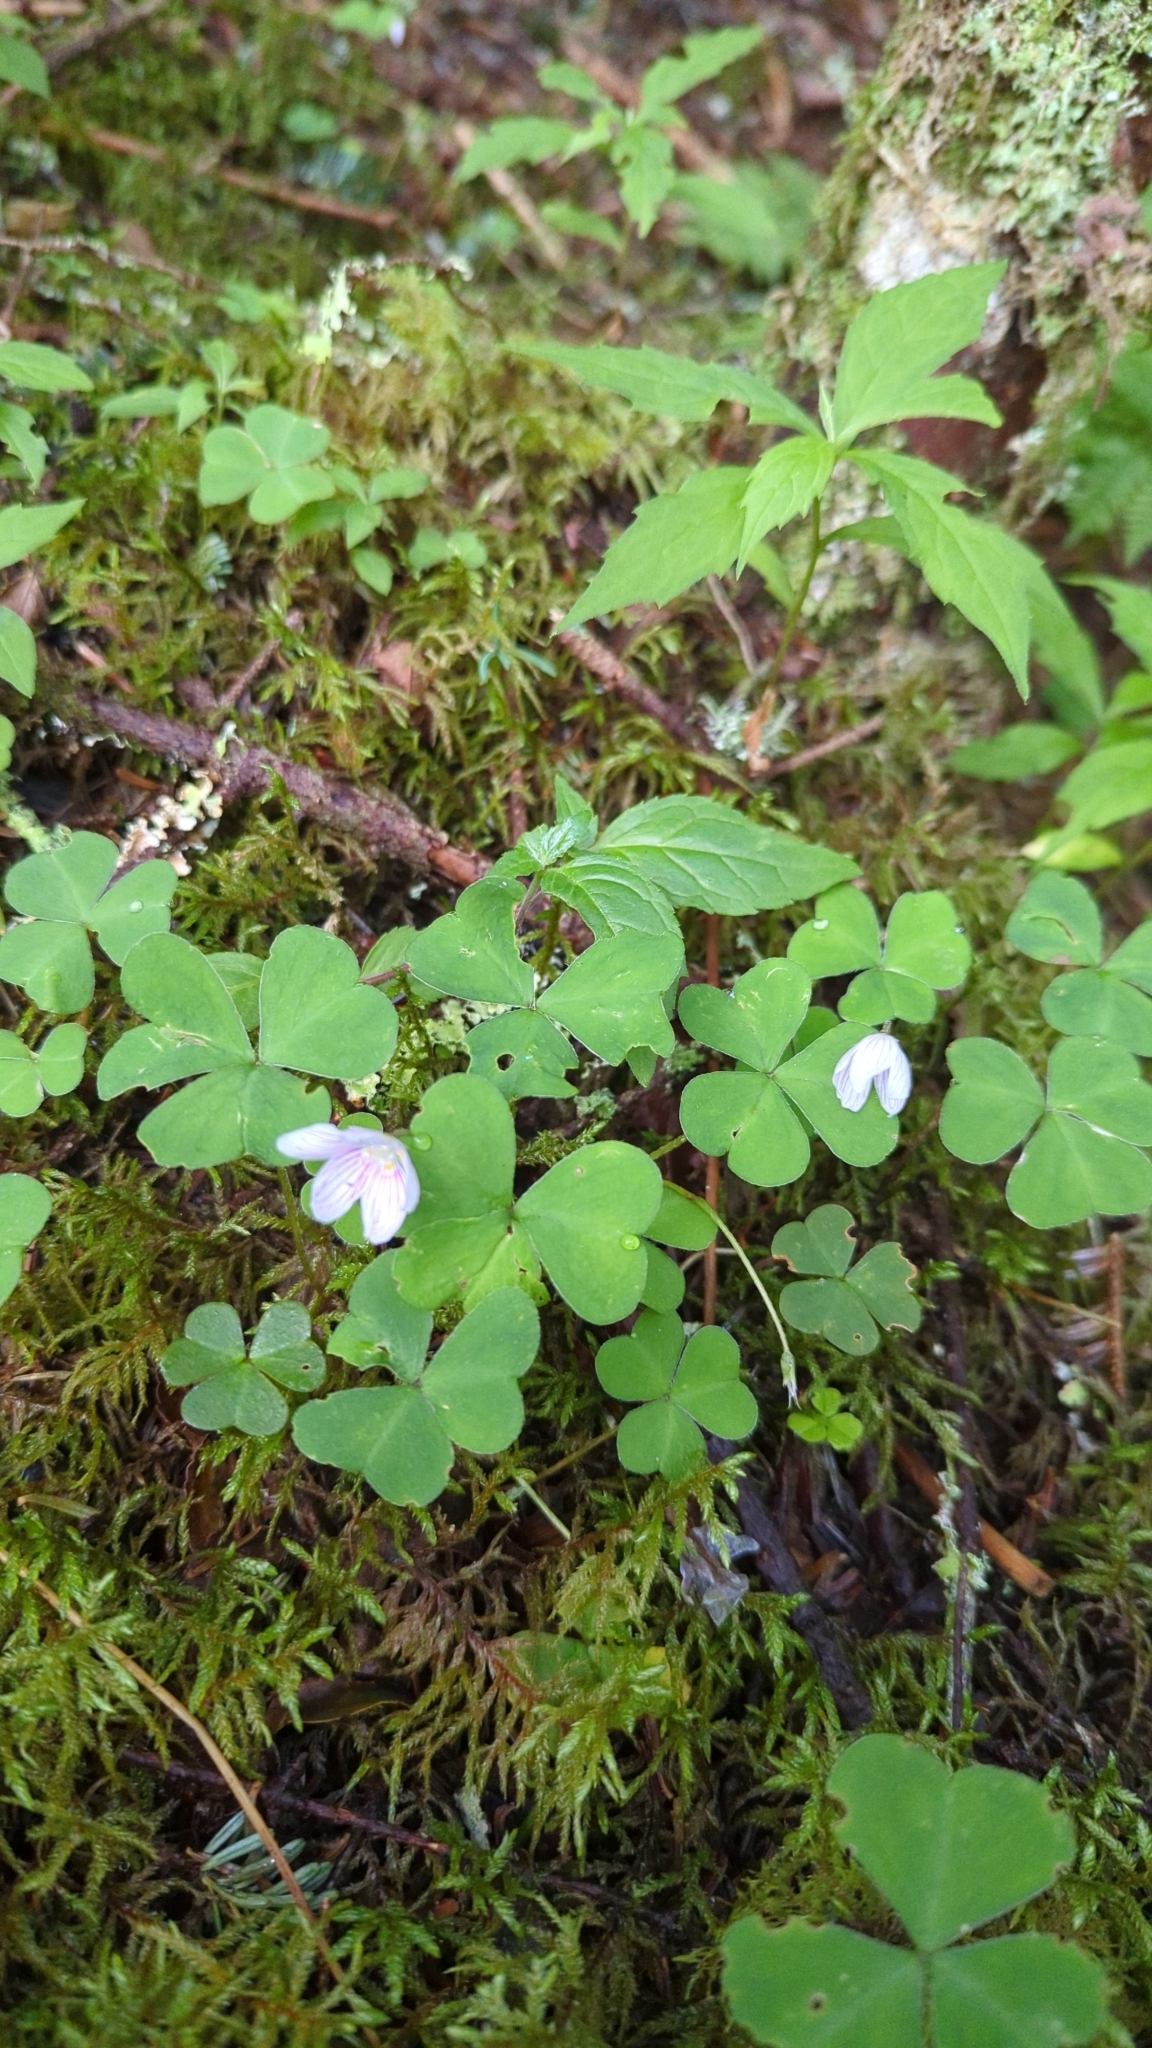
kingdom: Plantae
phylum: Tracheophyta
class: Magnoliopsida
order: Oxalidales
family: Oxalidaceae
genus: Oxalis
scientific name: Oxalis montana
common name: American wood-sorrel
